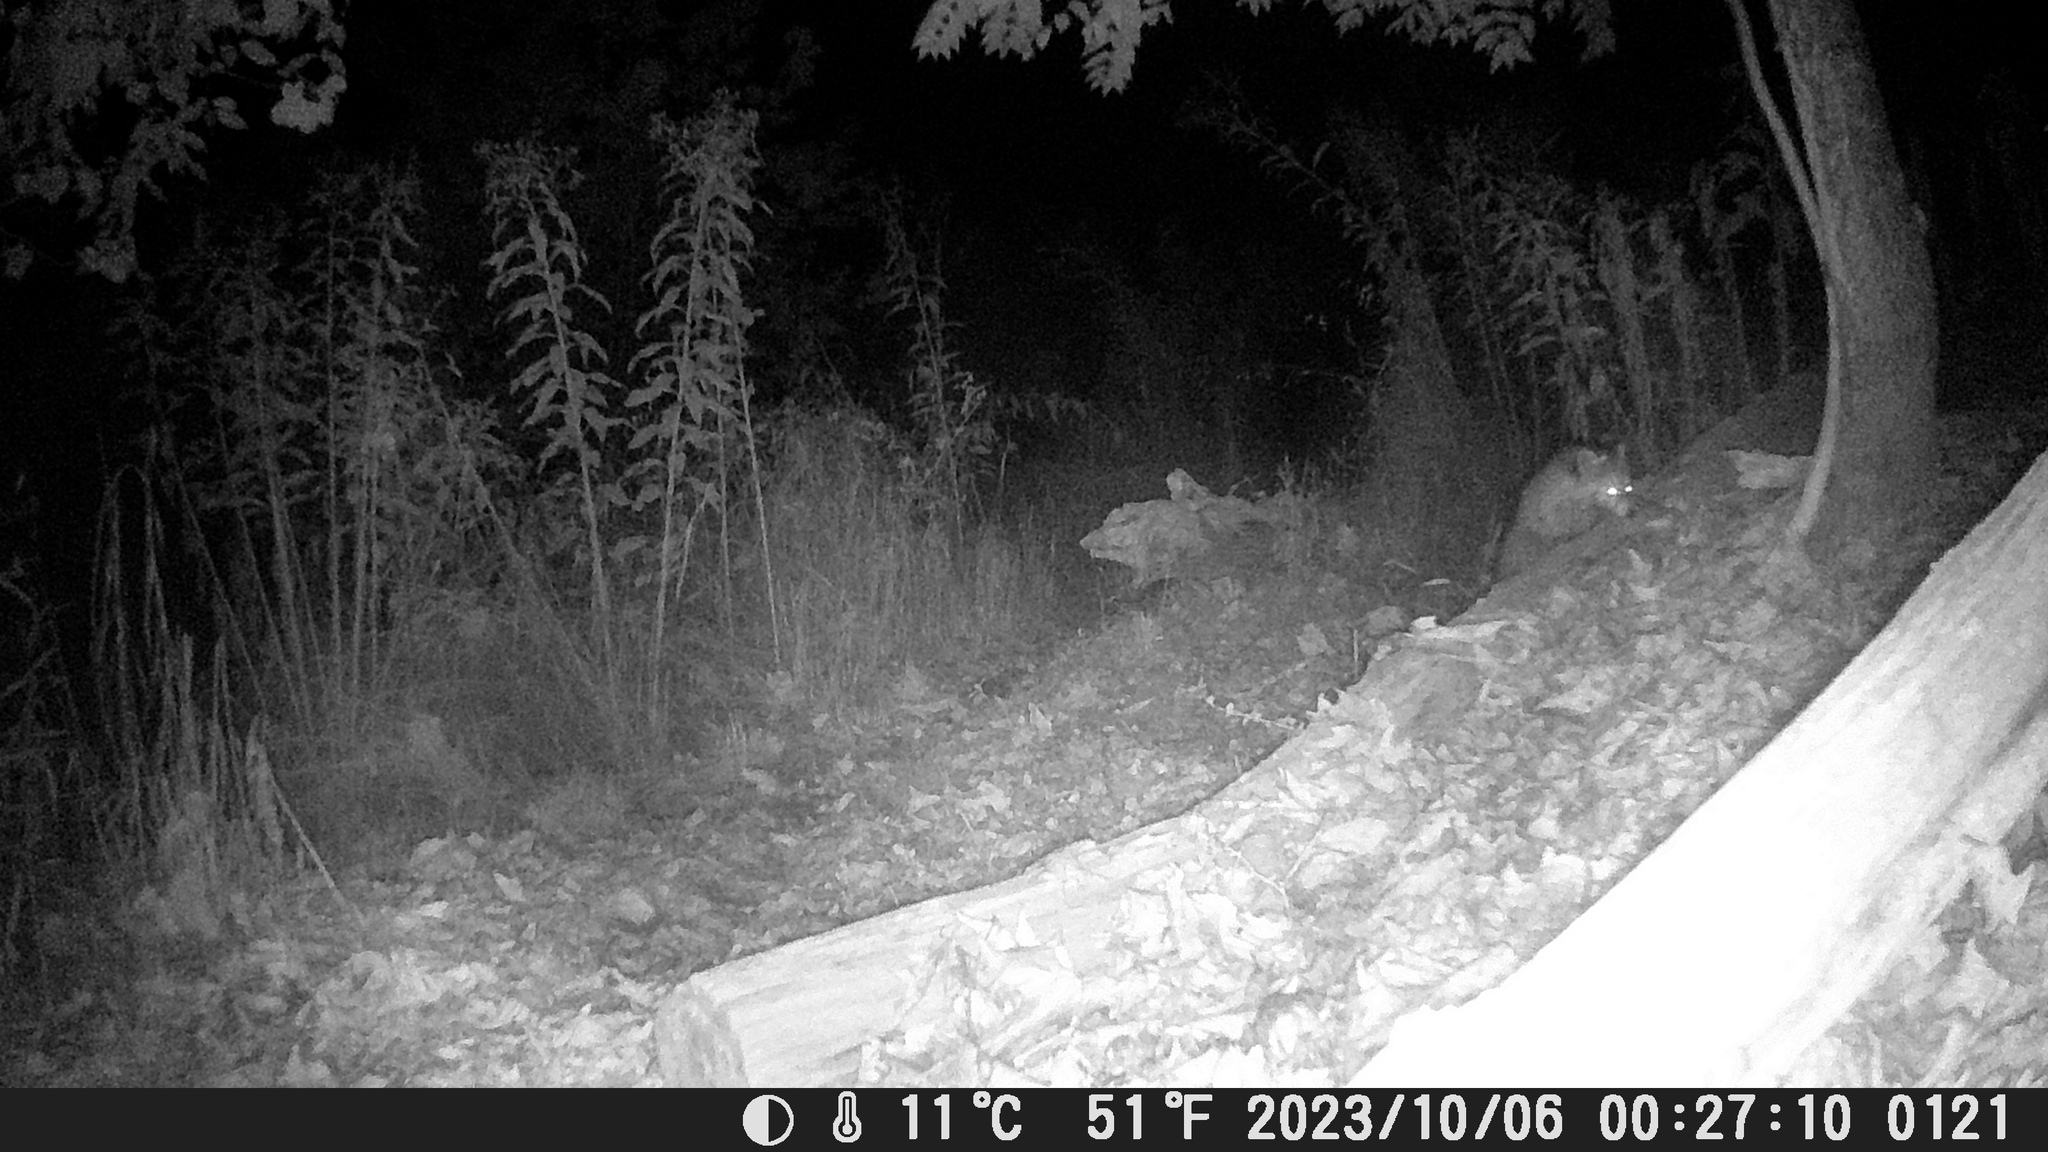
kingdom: Animalia
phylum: Chordata
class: Mammalia
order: Carnivora
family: Procyonidae
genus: Procyon
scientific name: Procyon lotor
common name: Raccoon
